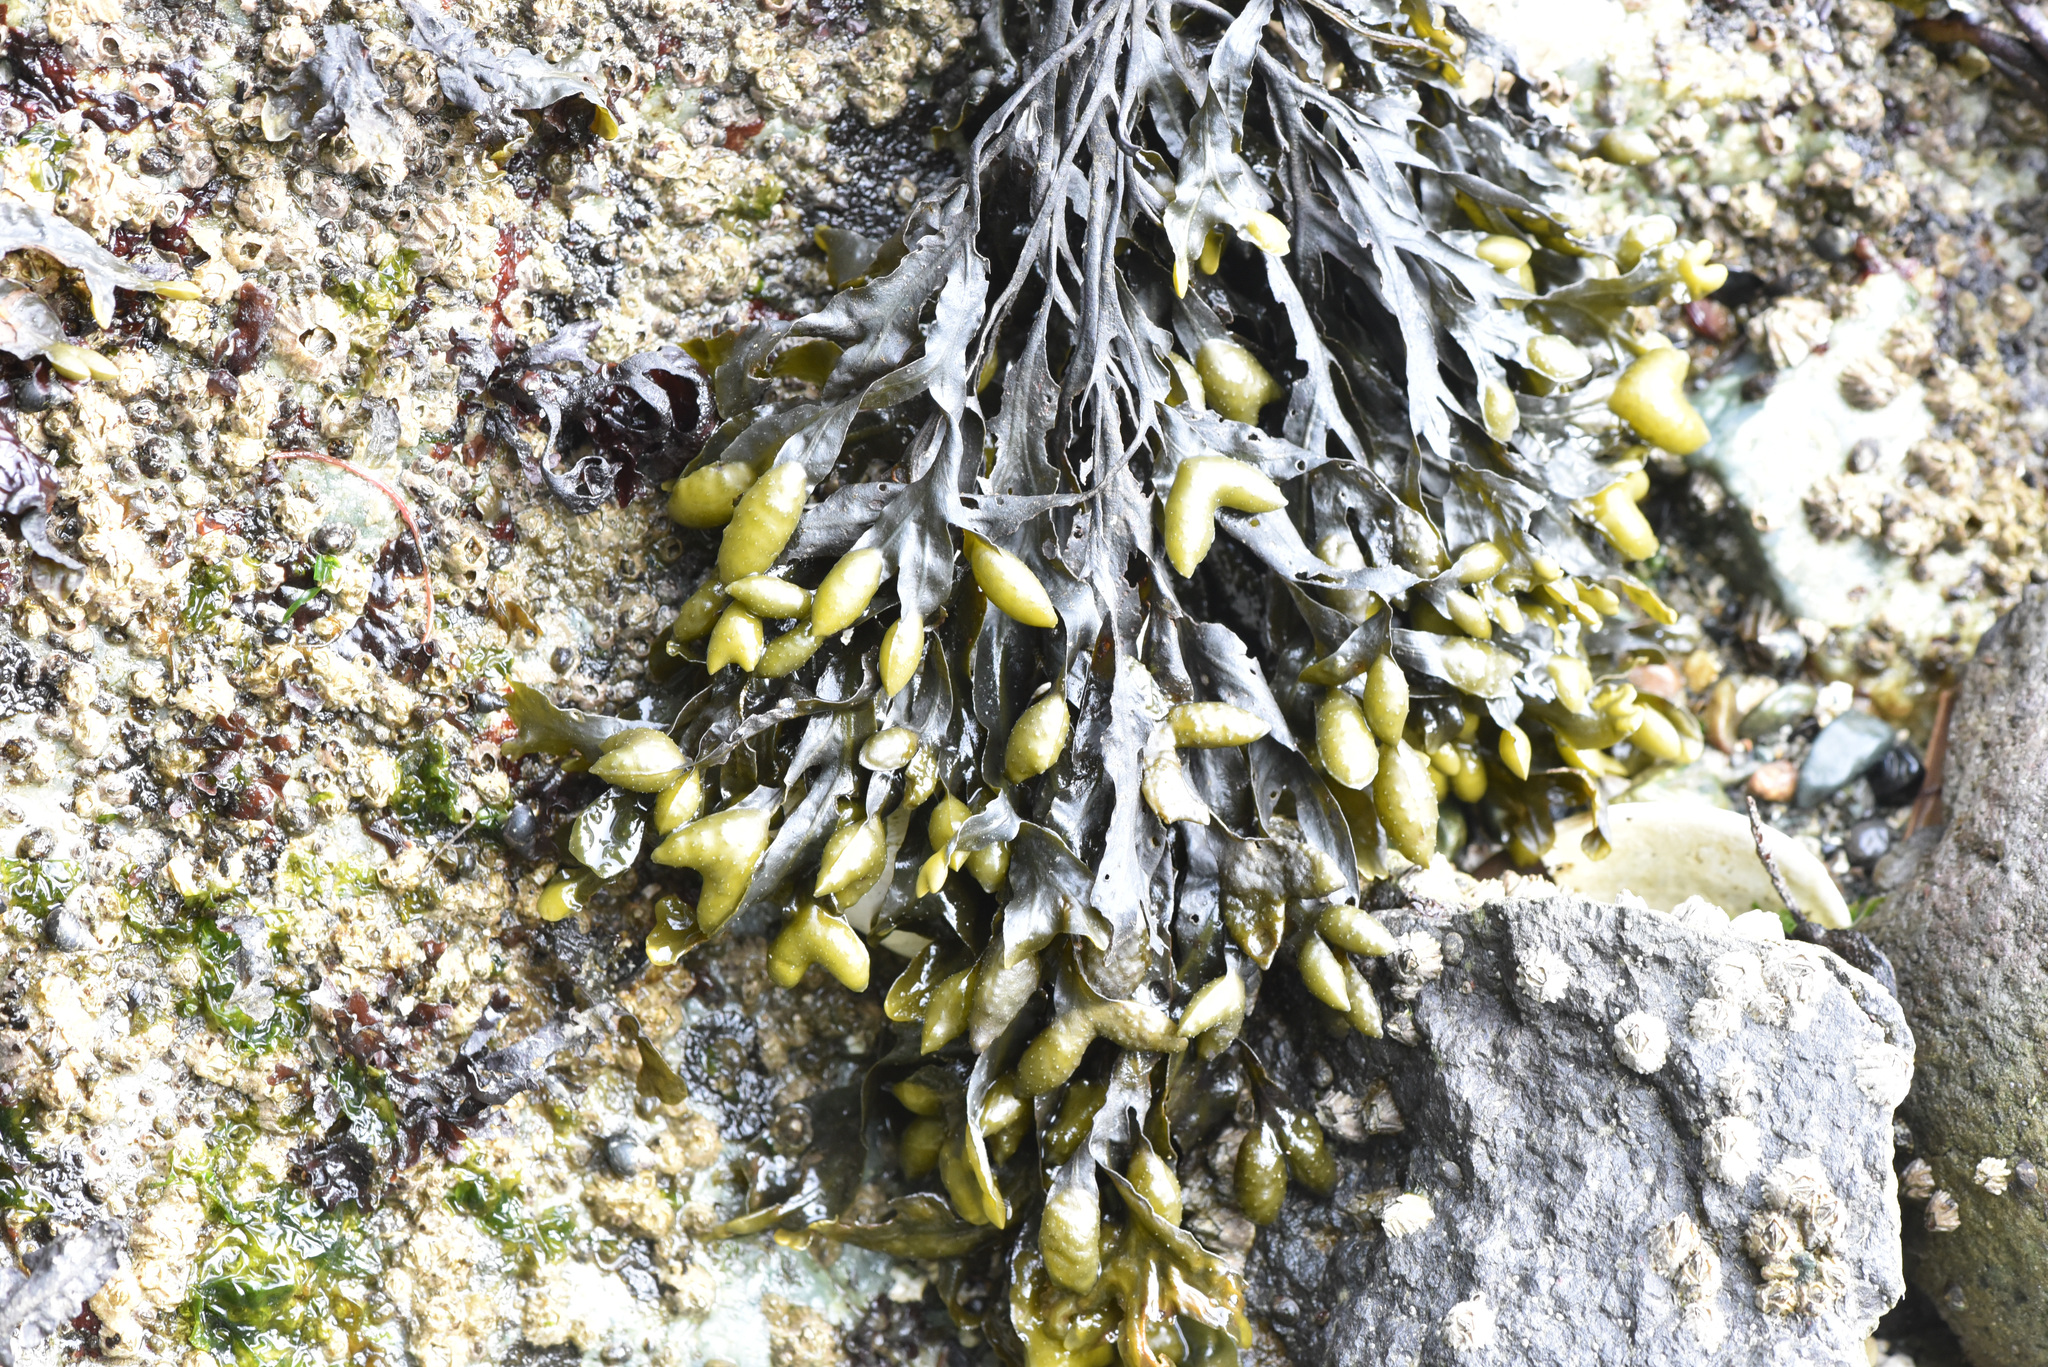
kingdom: Chromista
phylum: Ochrophyta
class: Phaeophyceae
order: Fucales
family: Fucaceae
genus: Fucus
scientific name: Fucus distichus
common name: Rockweed
